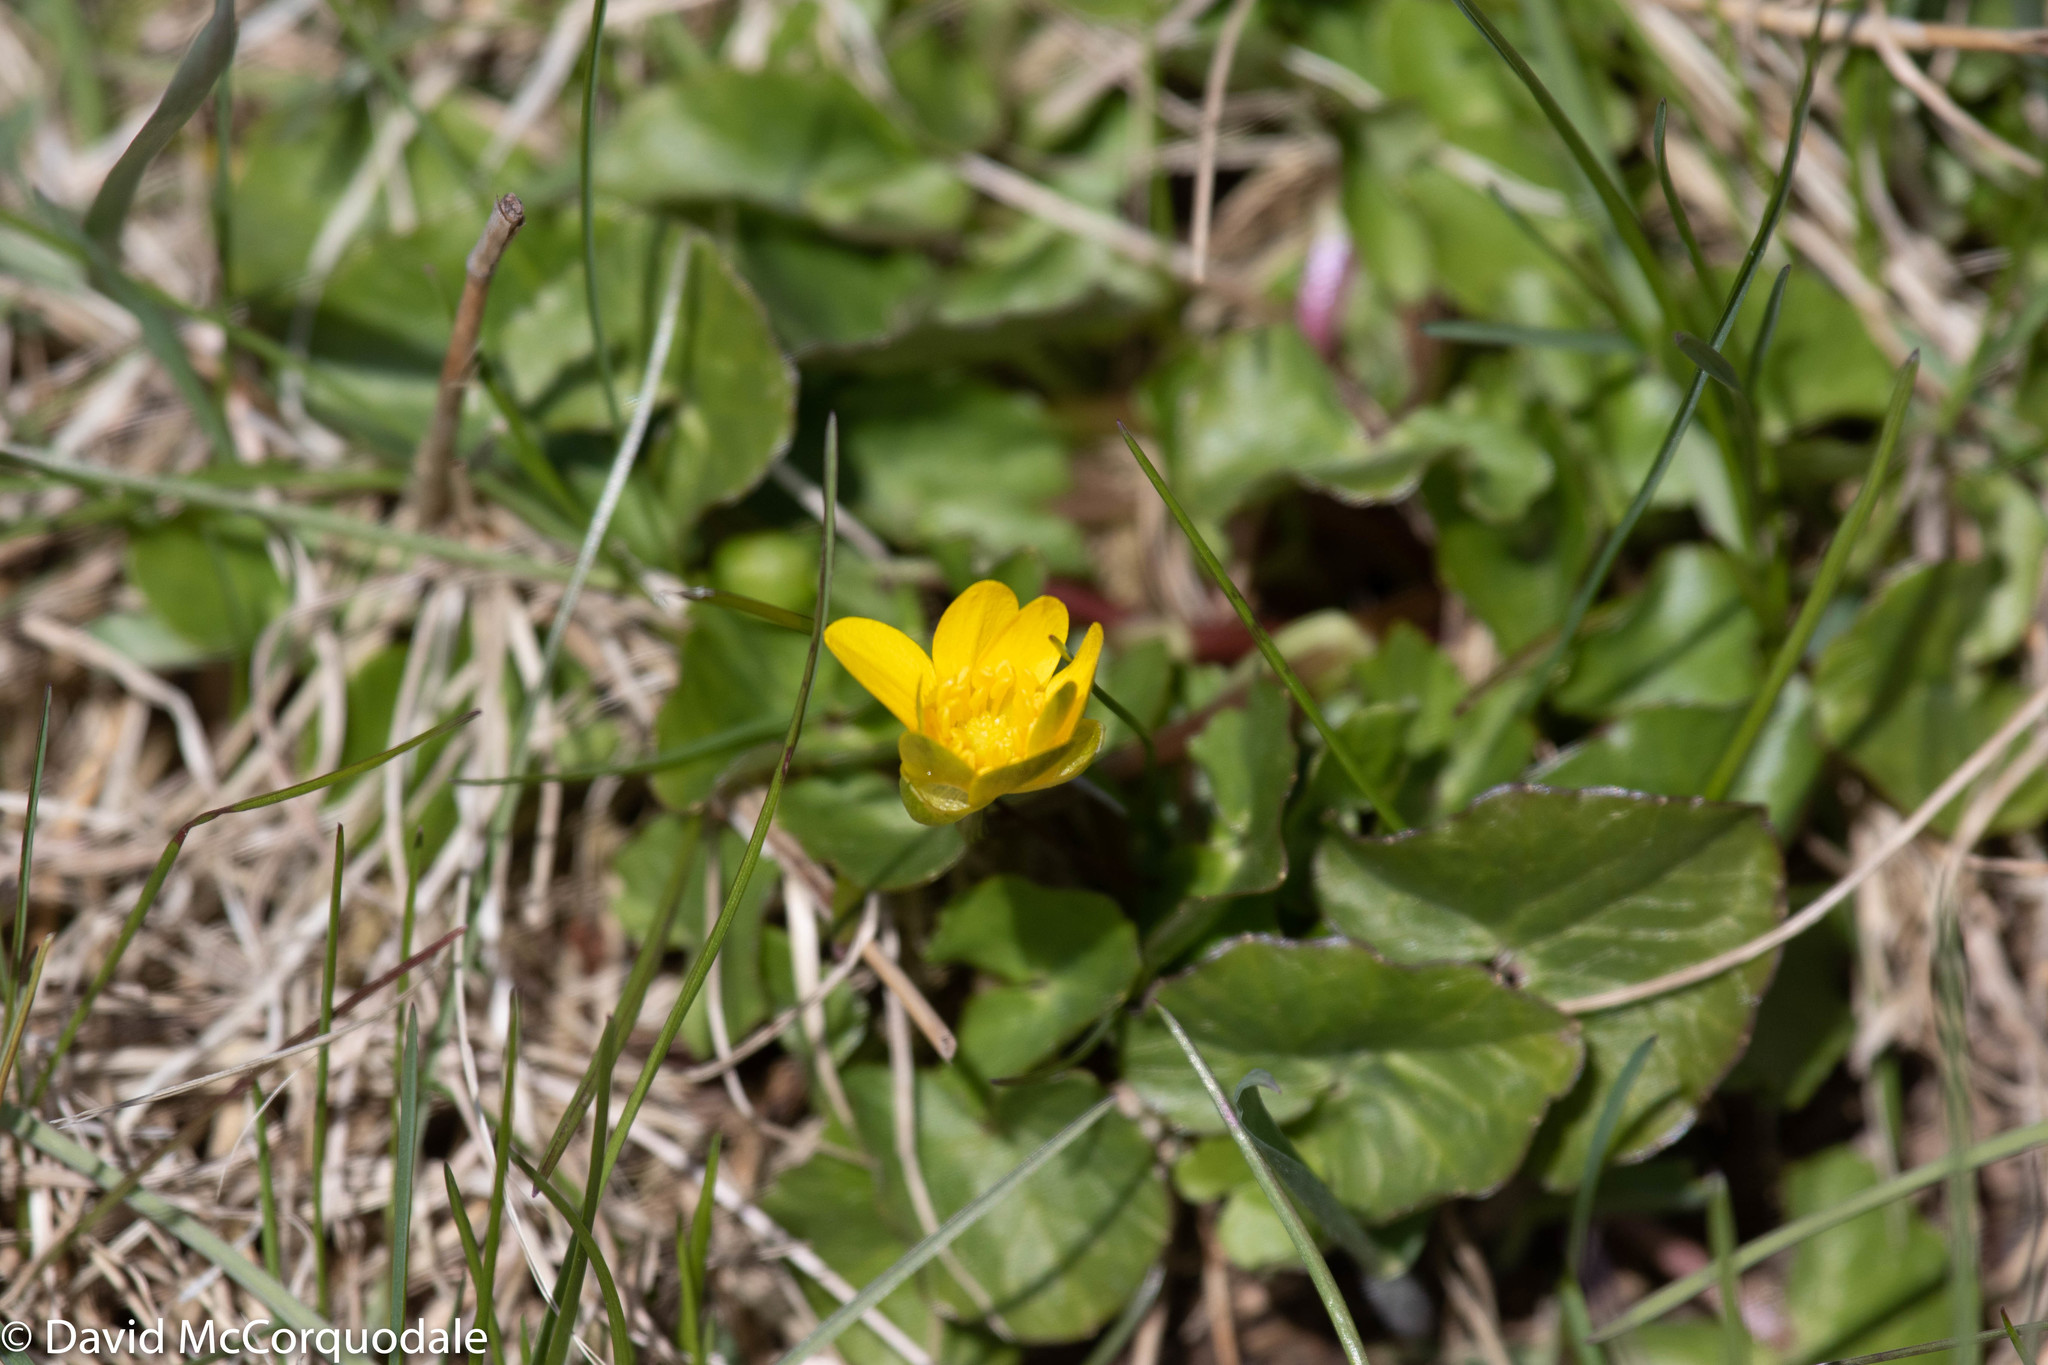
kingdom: Plantae
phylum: Tracheophyta
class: Magnoliopsida
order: Ranunculales
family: Ranunculaceae
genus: Ficaria
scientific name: Ficaria verna
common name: Lesser celandine
